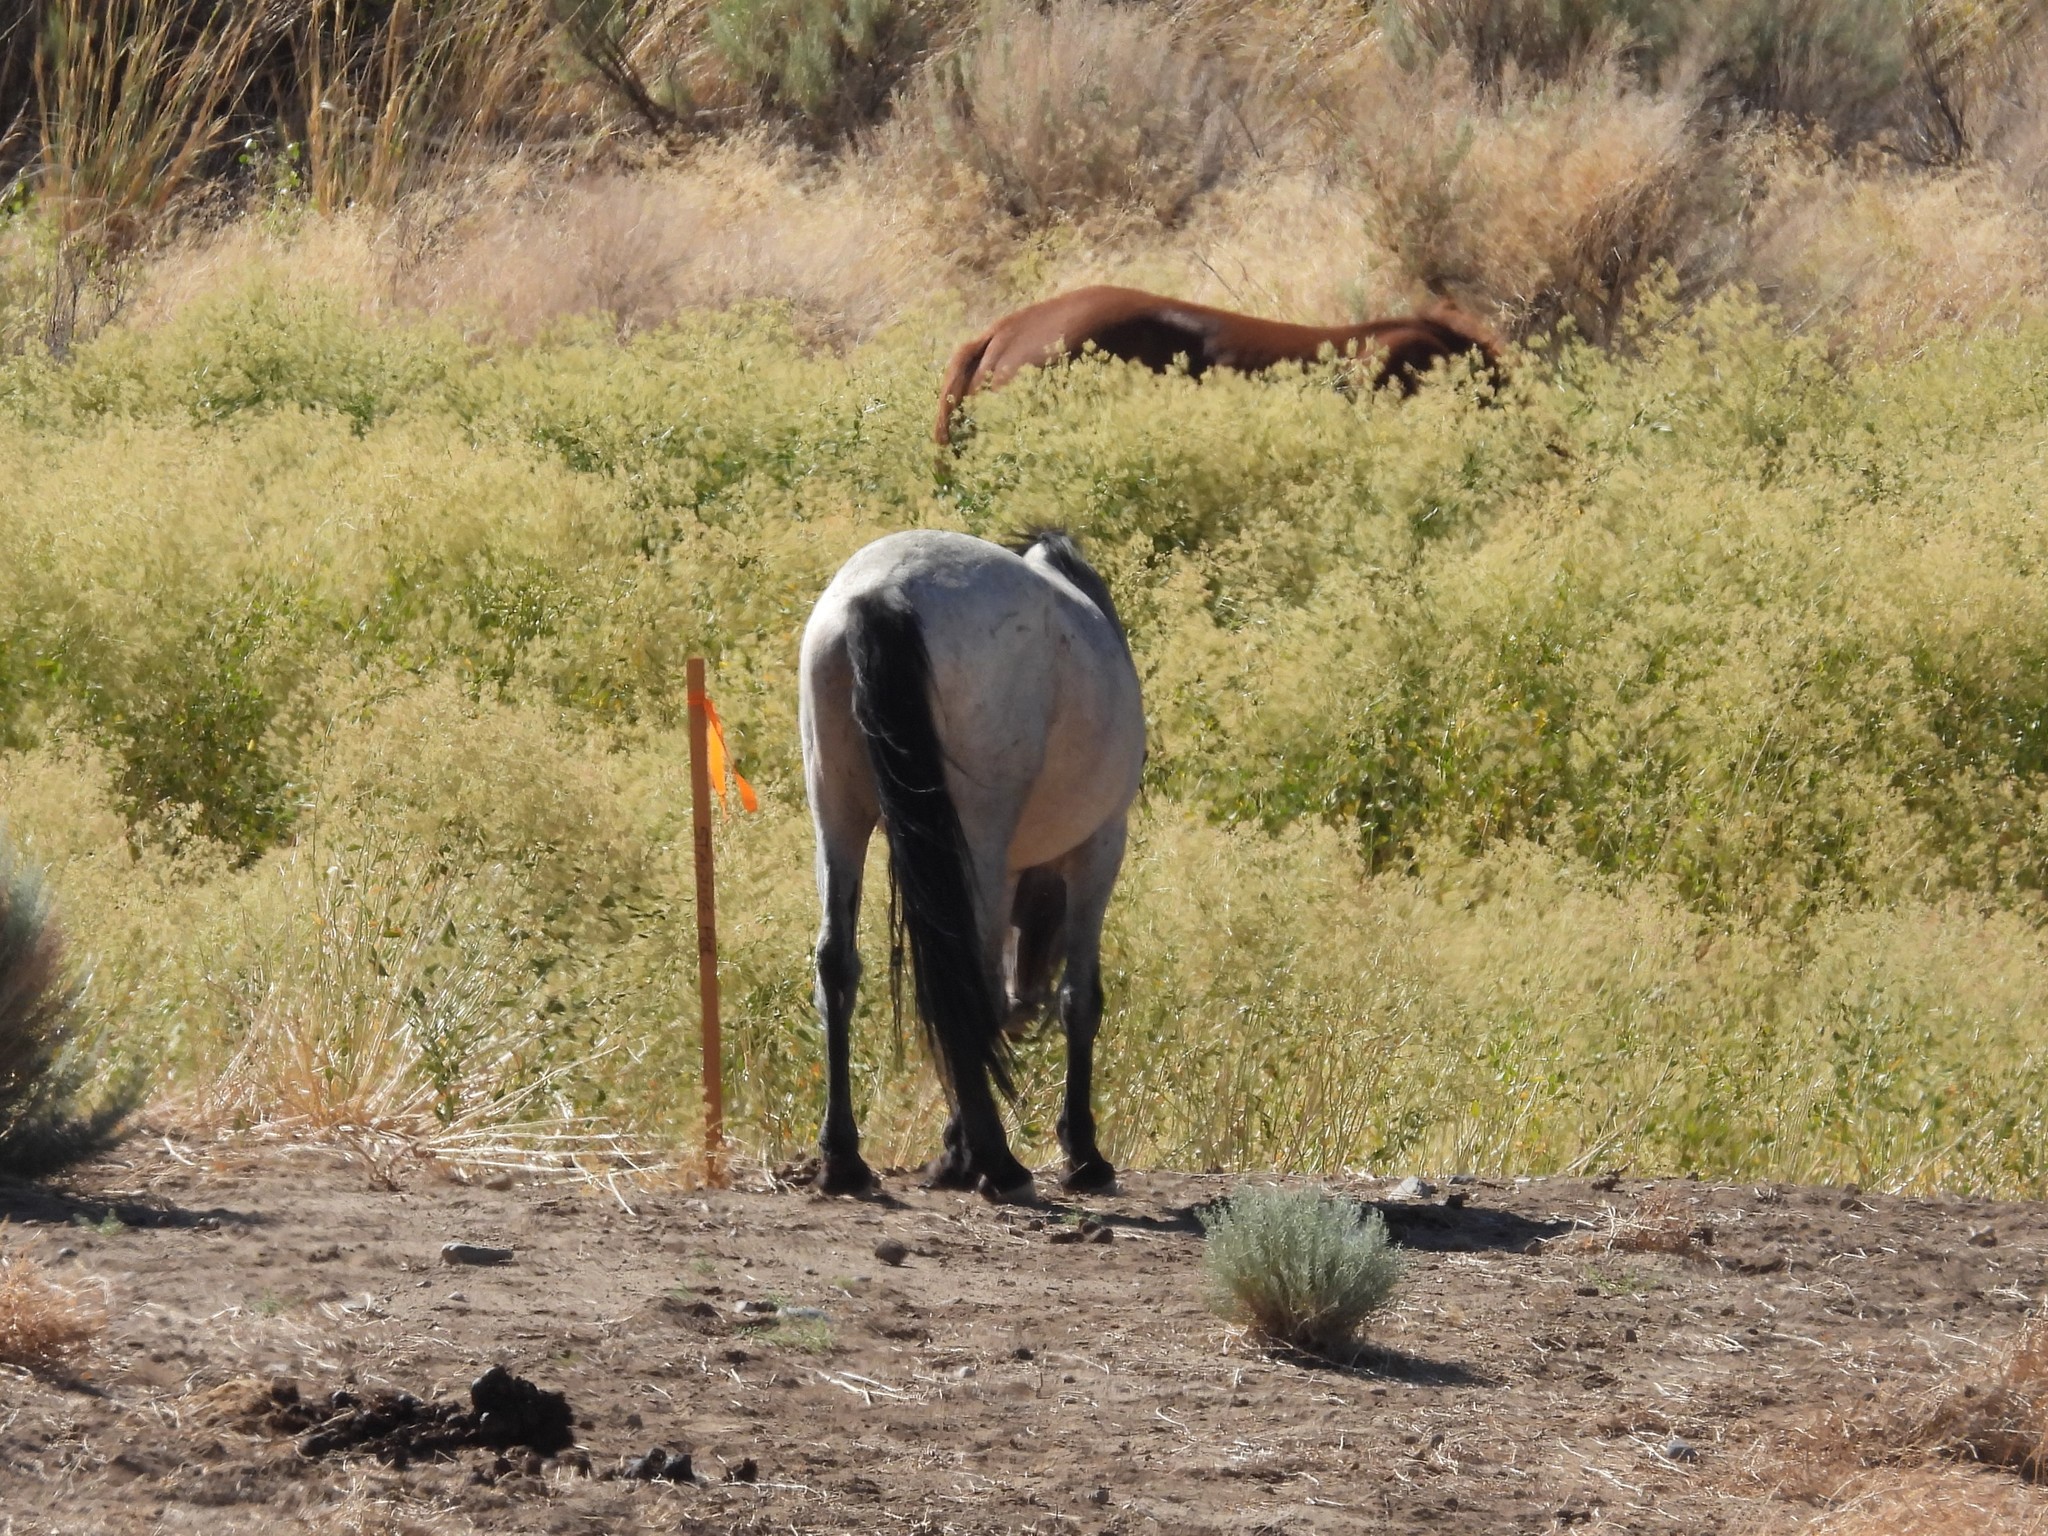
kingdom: Animalia
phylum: Chordata
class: Mammalia
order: Perissodactyla
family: Equidae
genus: Equus
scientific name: Equus caballus
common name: Horse
